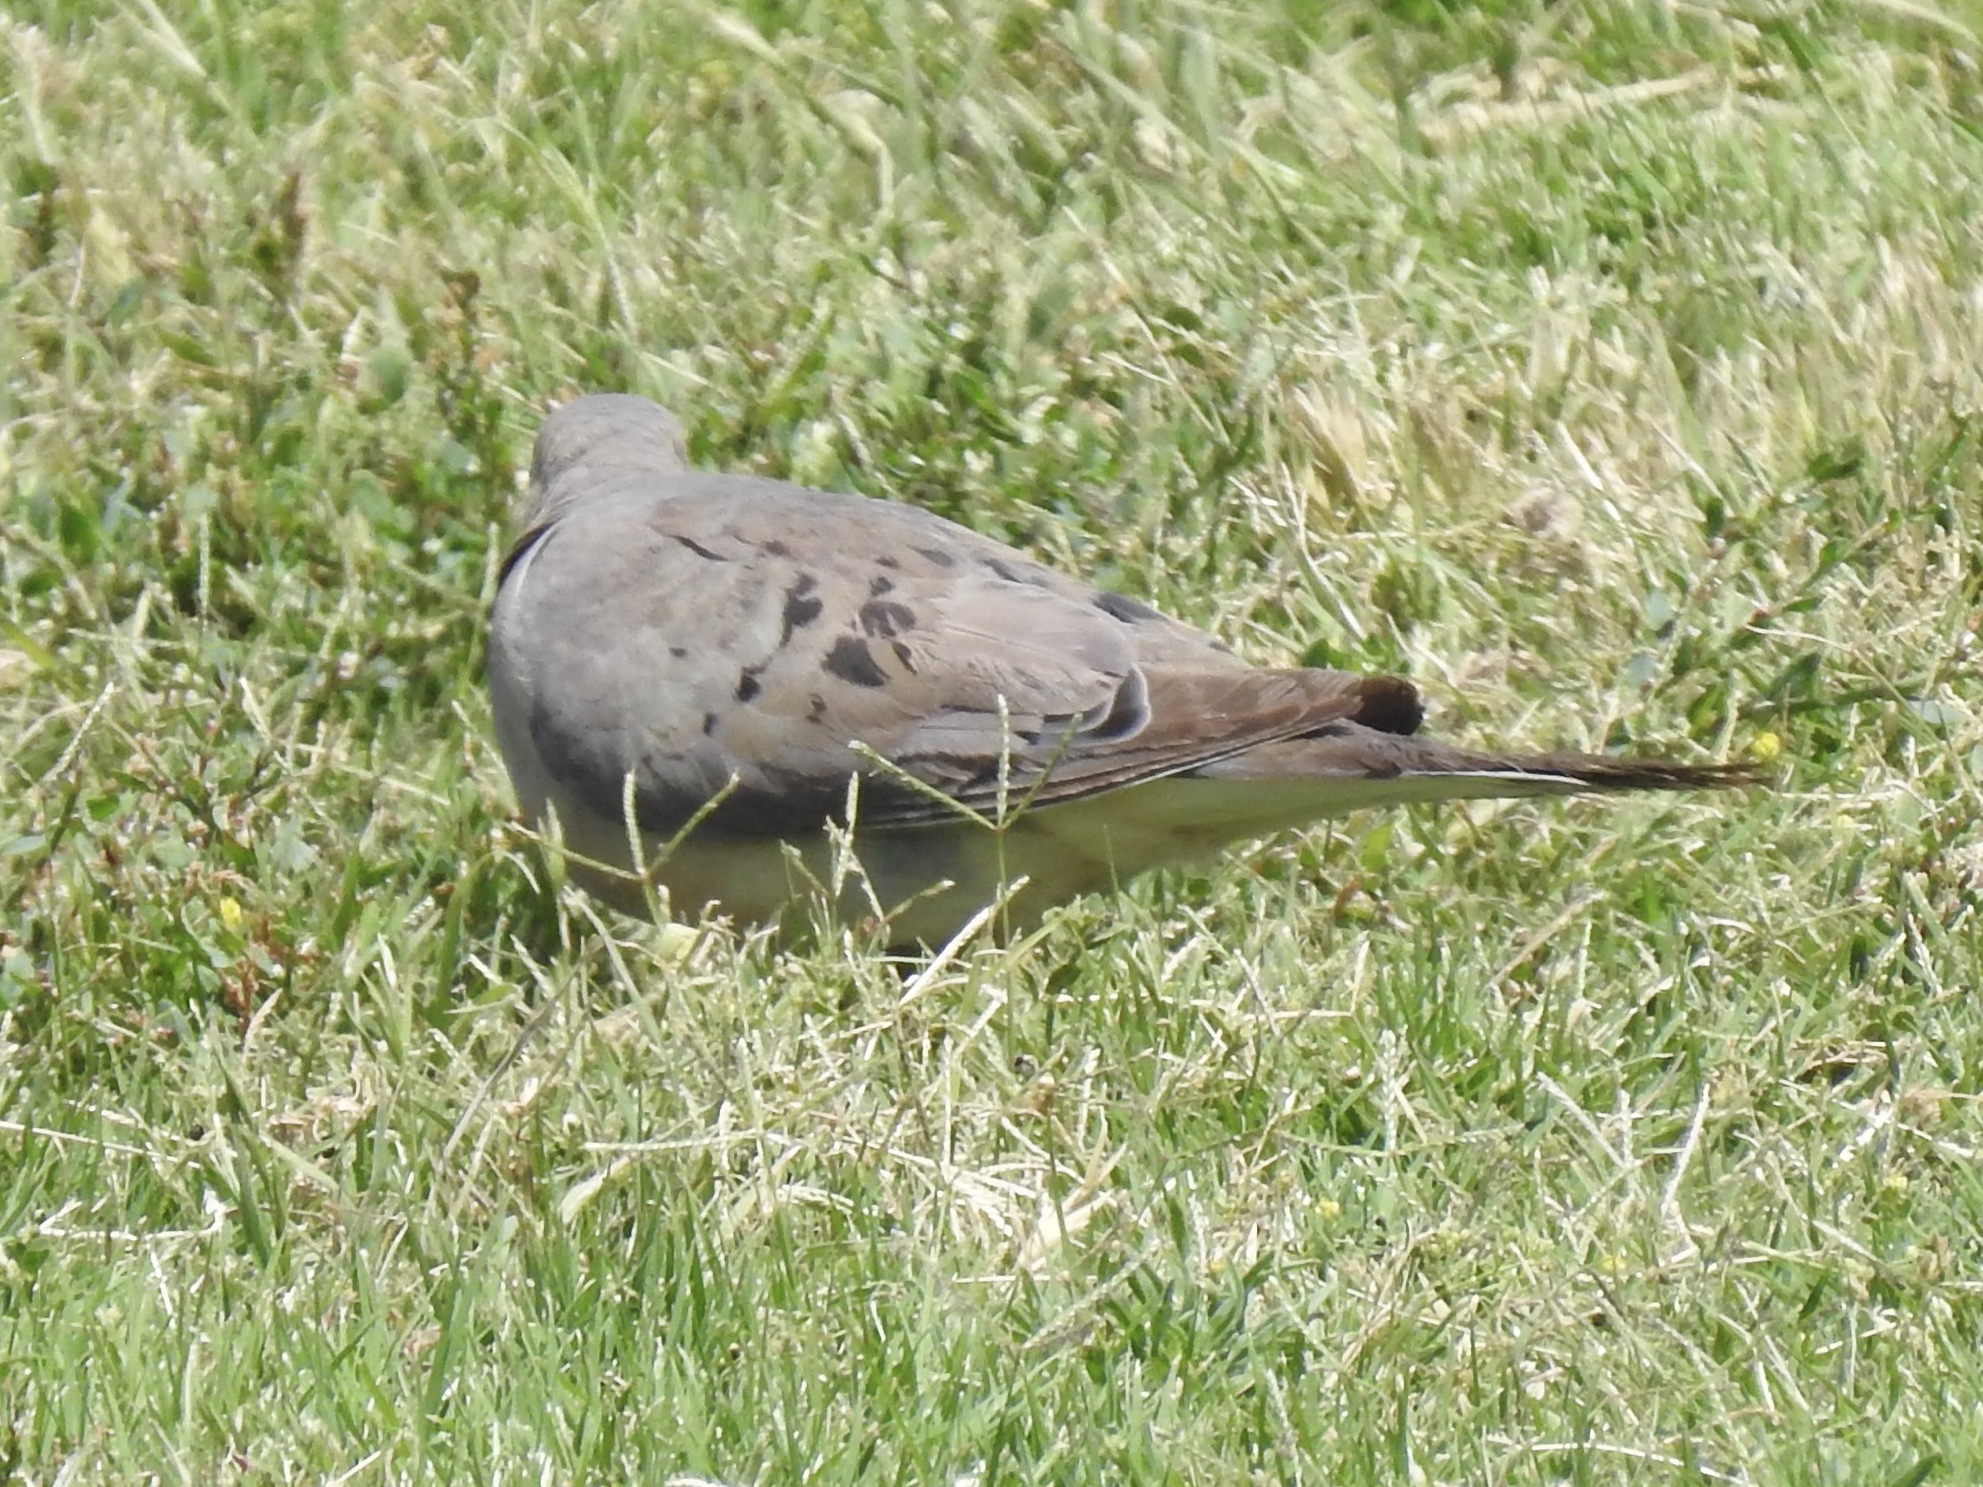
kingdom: Animalia
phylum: Chordata
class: Aves
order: Columbiformes
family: Columbidae
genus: Zenaida
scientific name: Zenaida macroura
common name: Mourning dove
